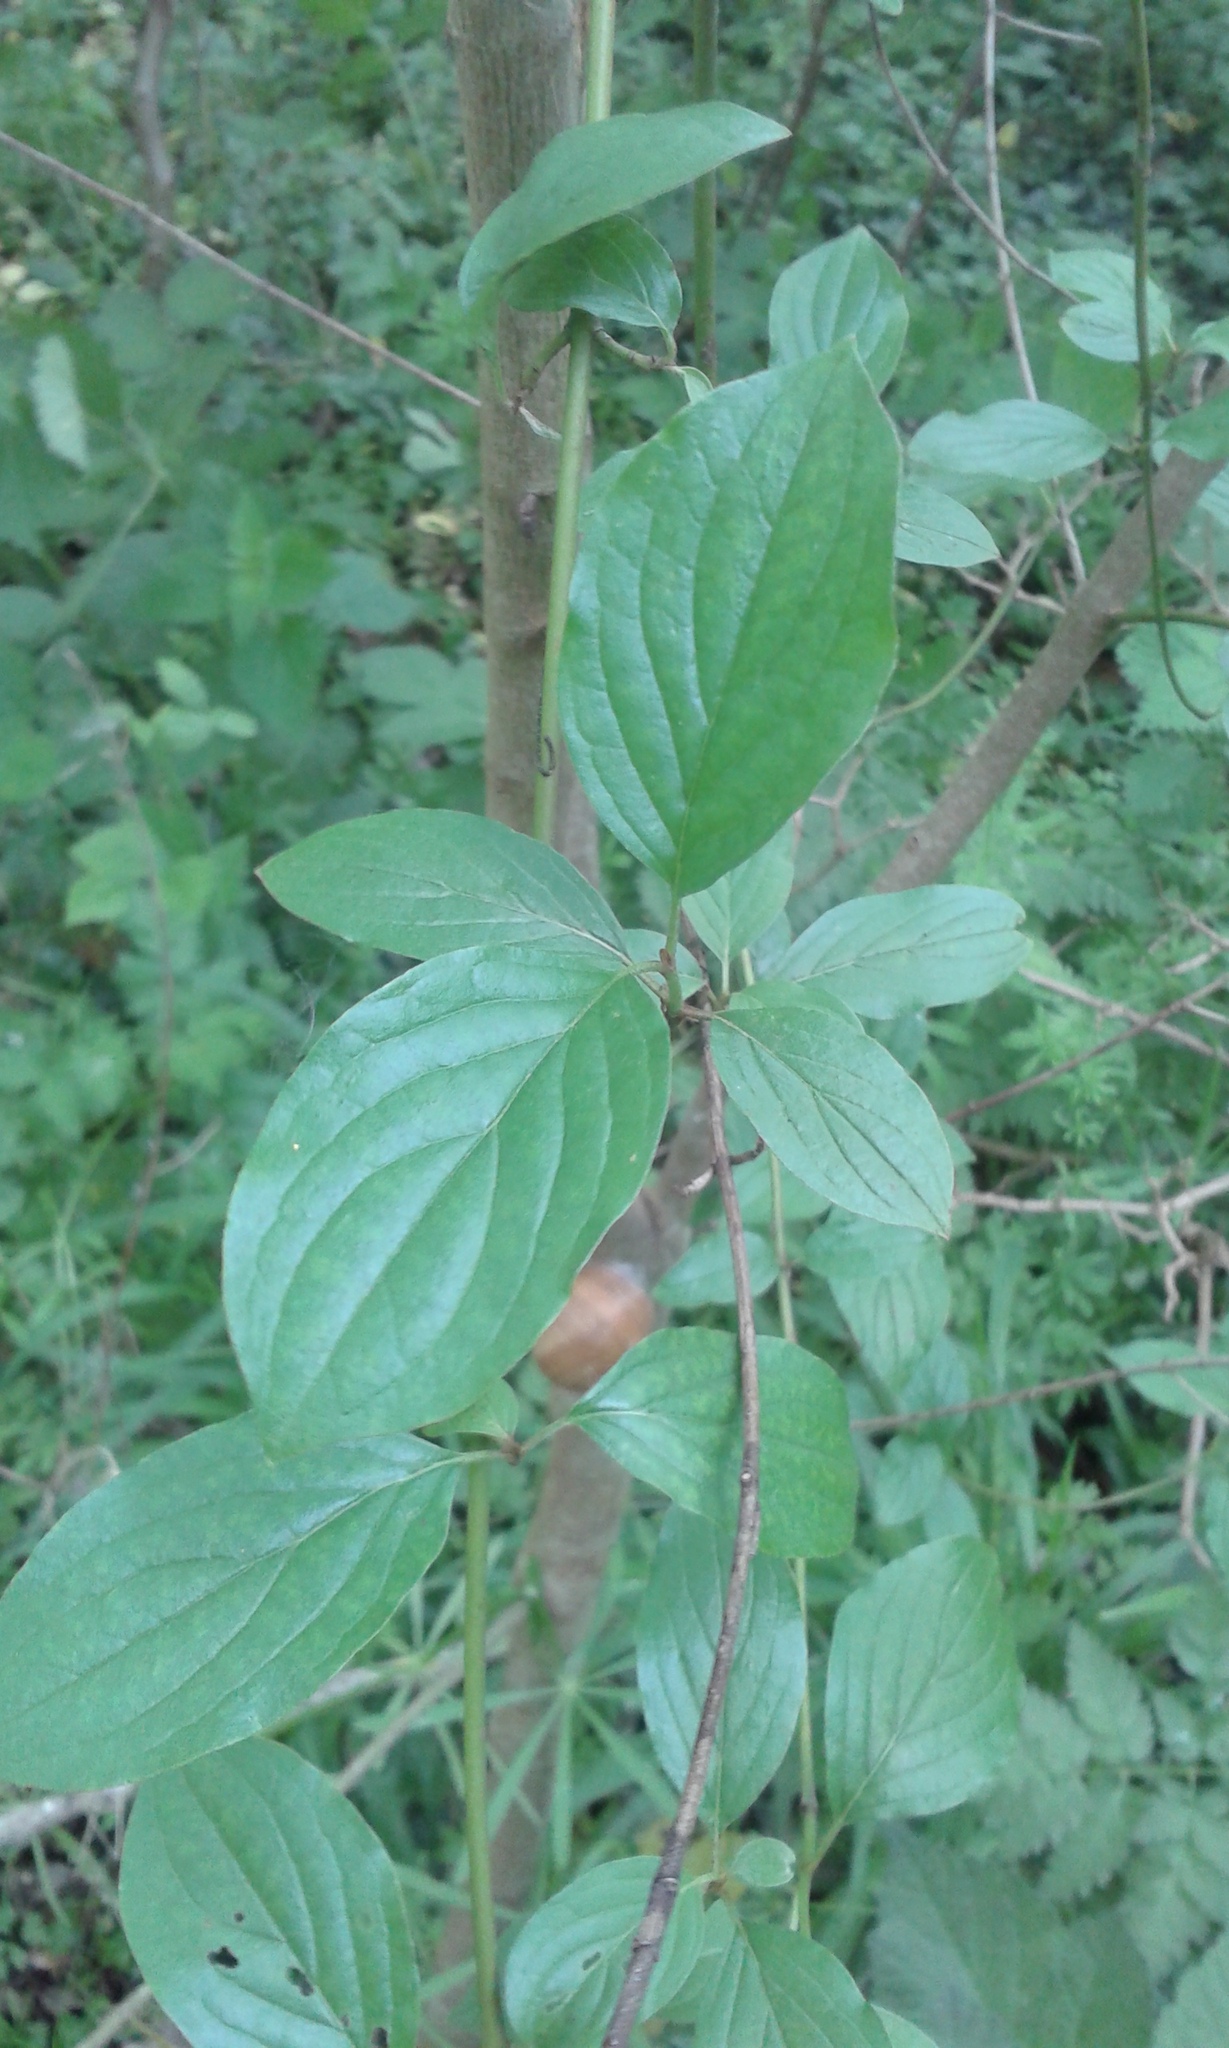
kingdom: Plantae
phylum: Tracheophyta
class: Magnoliopsida
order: Cornales
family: Cornaceae
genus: Cornus
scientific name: Cornus sanguinea
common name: Dogwood
